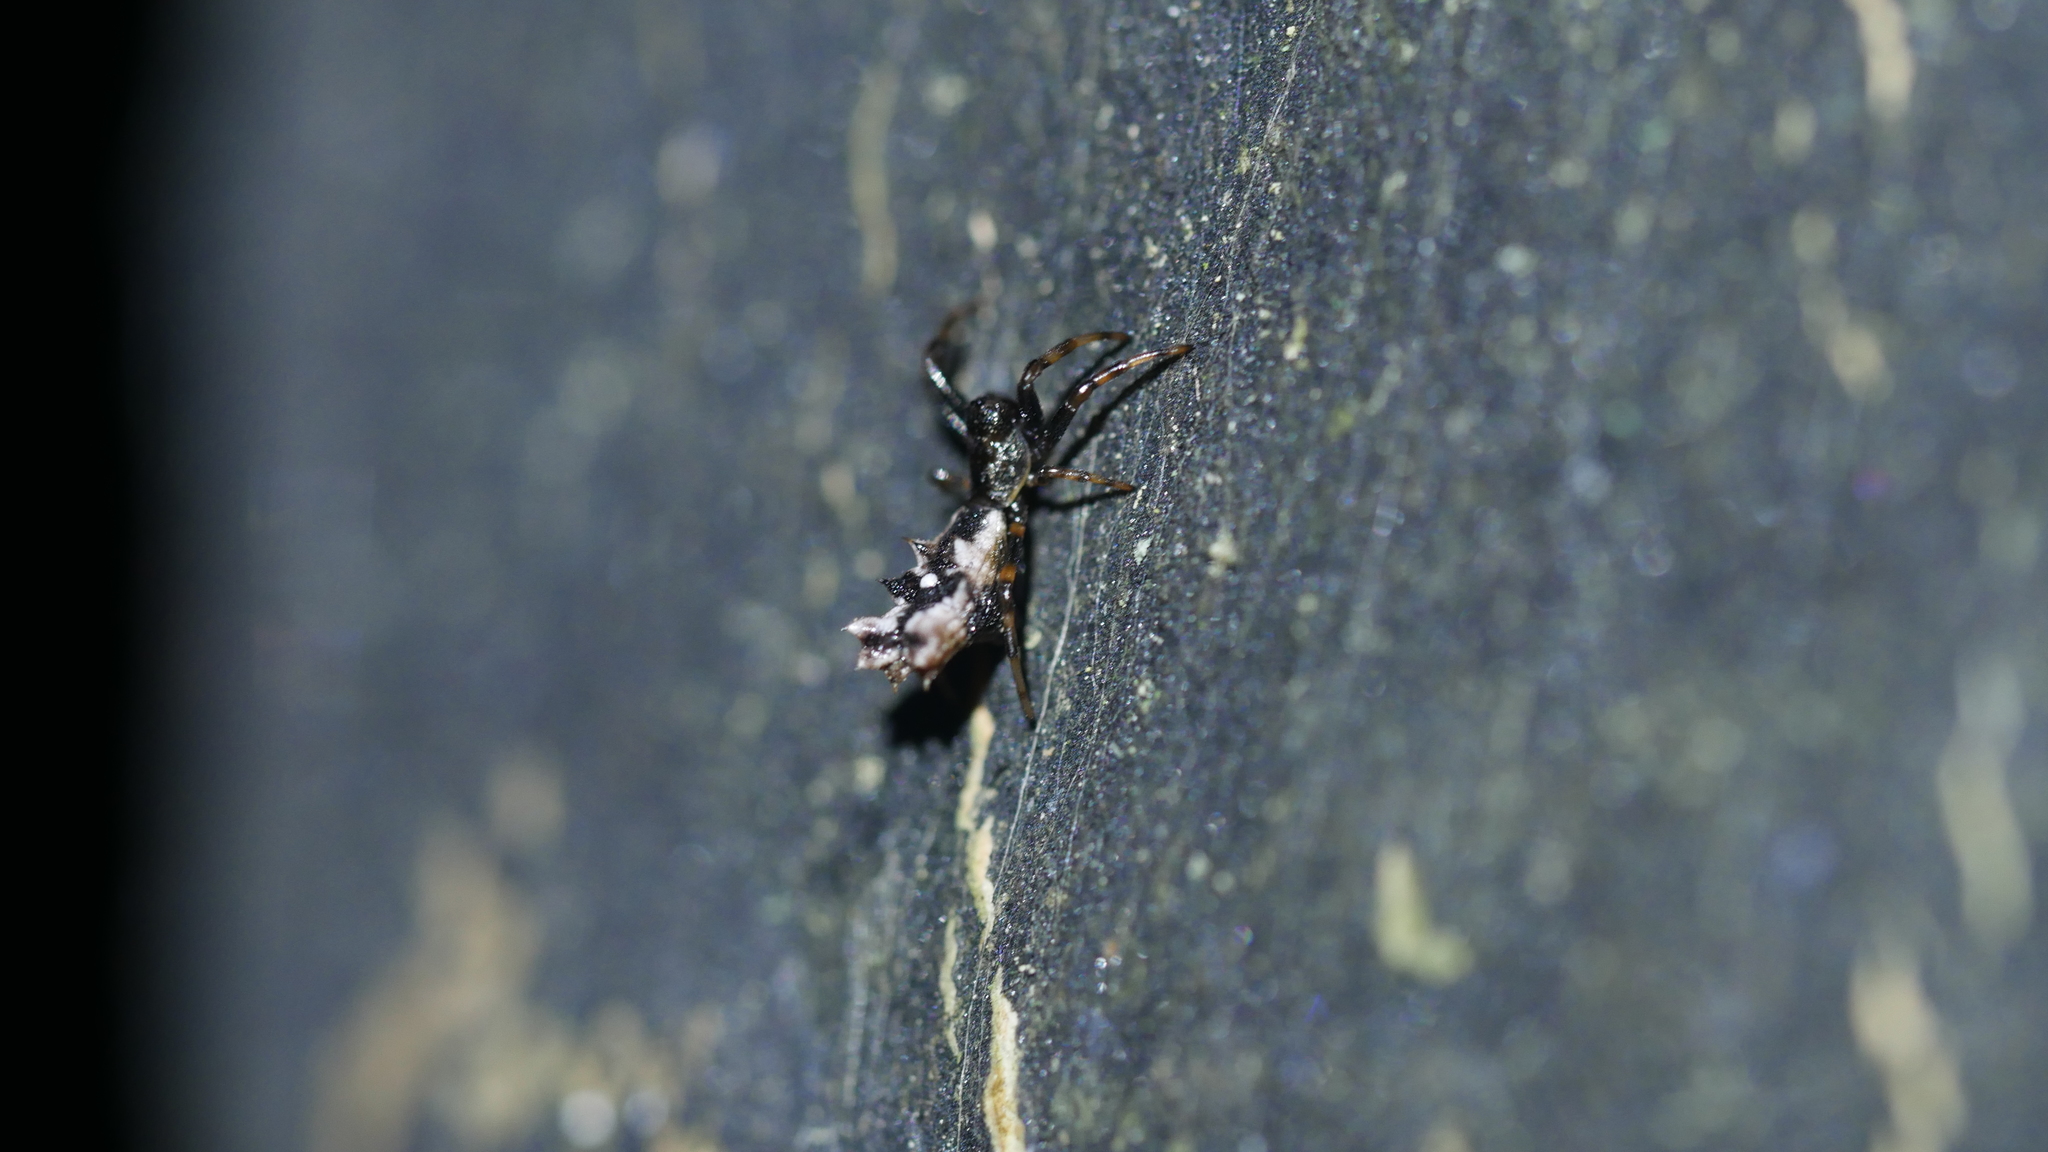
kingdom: Animalia
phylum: Arthropoda
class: Arachnida
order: Araneae
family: Araneidae
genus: Micrathena
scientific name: Micrathena gracilis
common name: Orb weavers
